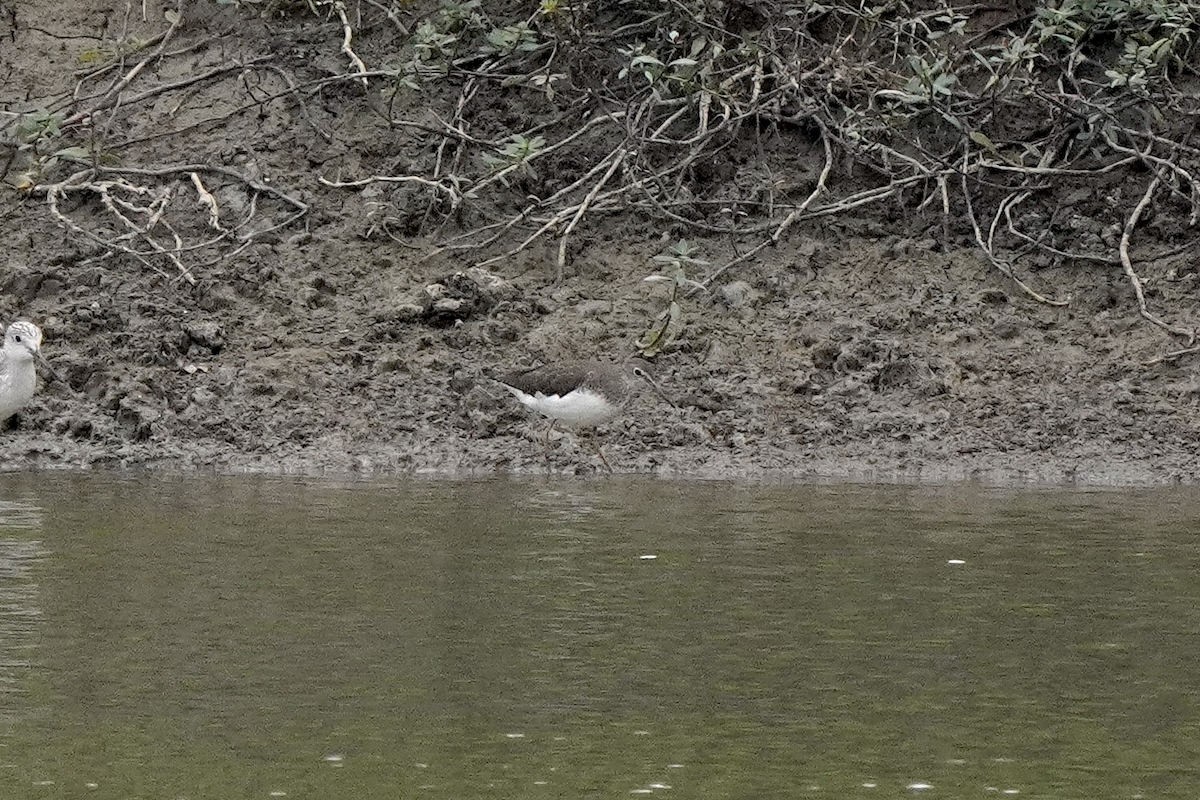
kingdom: Animalia
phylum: Chordata
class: Aves
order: Charadriiformes
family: Scolopacidae
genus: Tringa
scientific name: Tringa ochropus
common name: Green sandpiper
